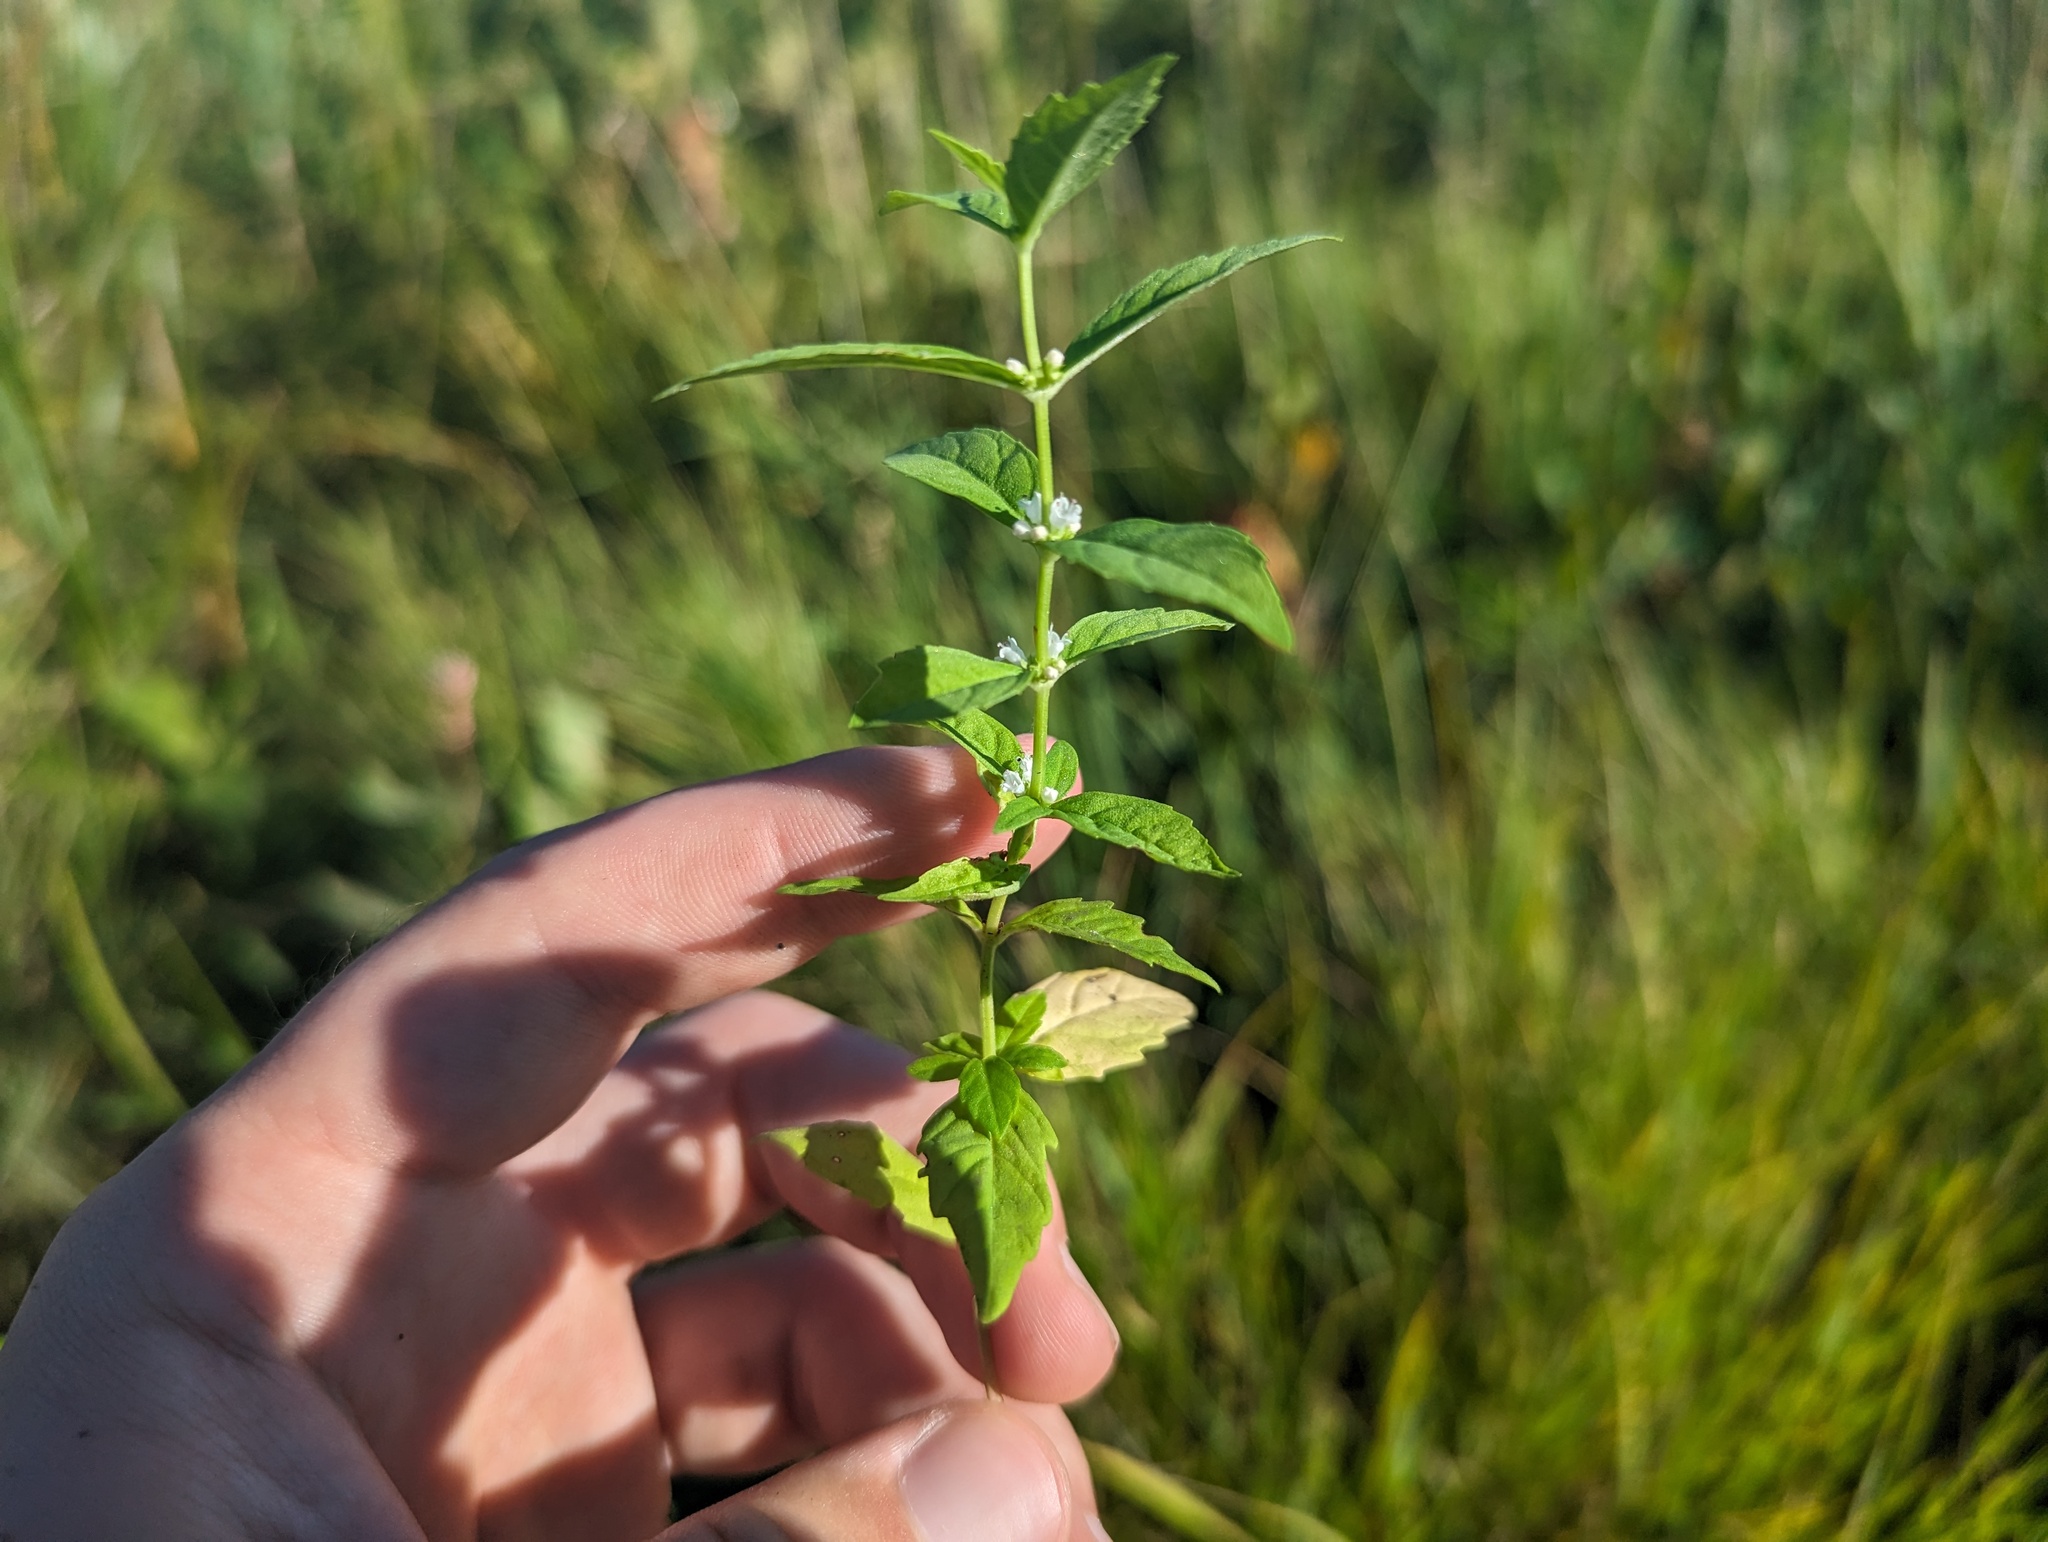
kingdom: Plantae
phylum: Tracheophyta
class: Magnoliopsida
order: Lamiales
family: Lamiaceae
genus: Lycopus
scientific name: Lycopus uniflorus
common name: Northern bugleweed
